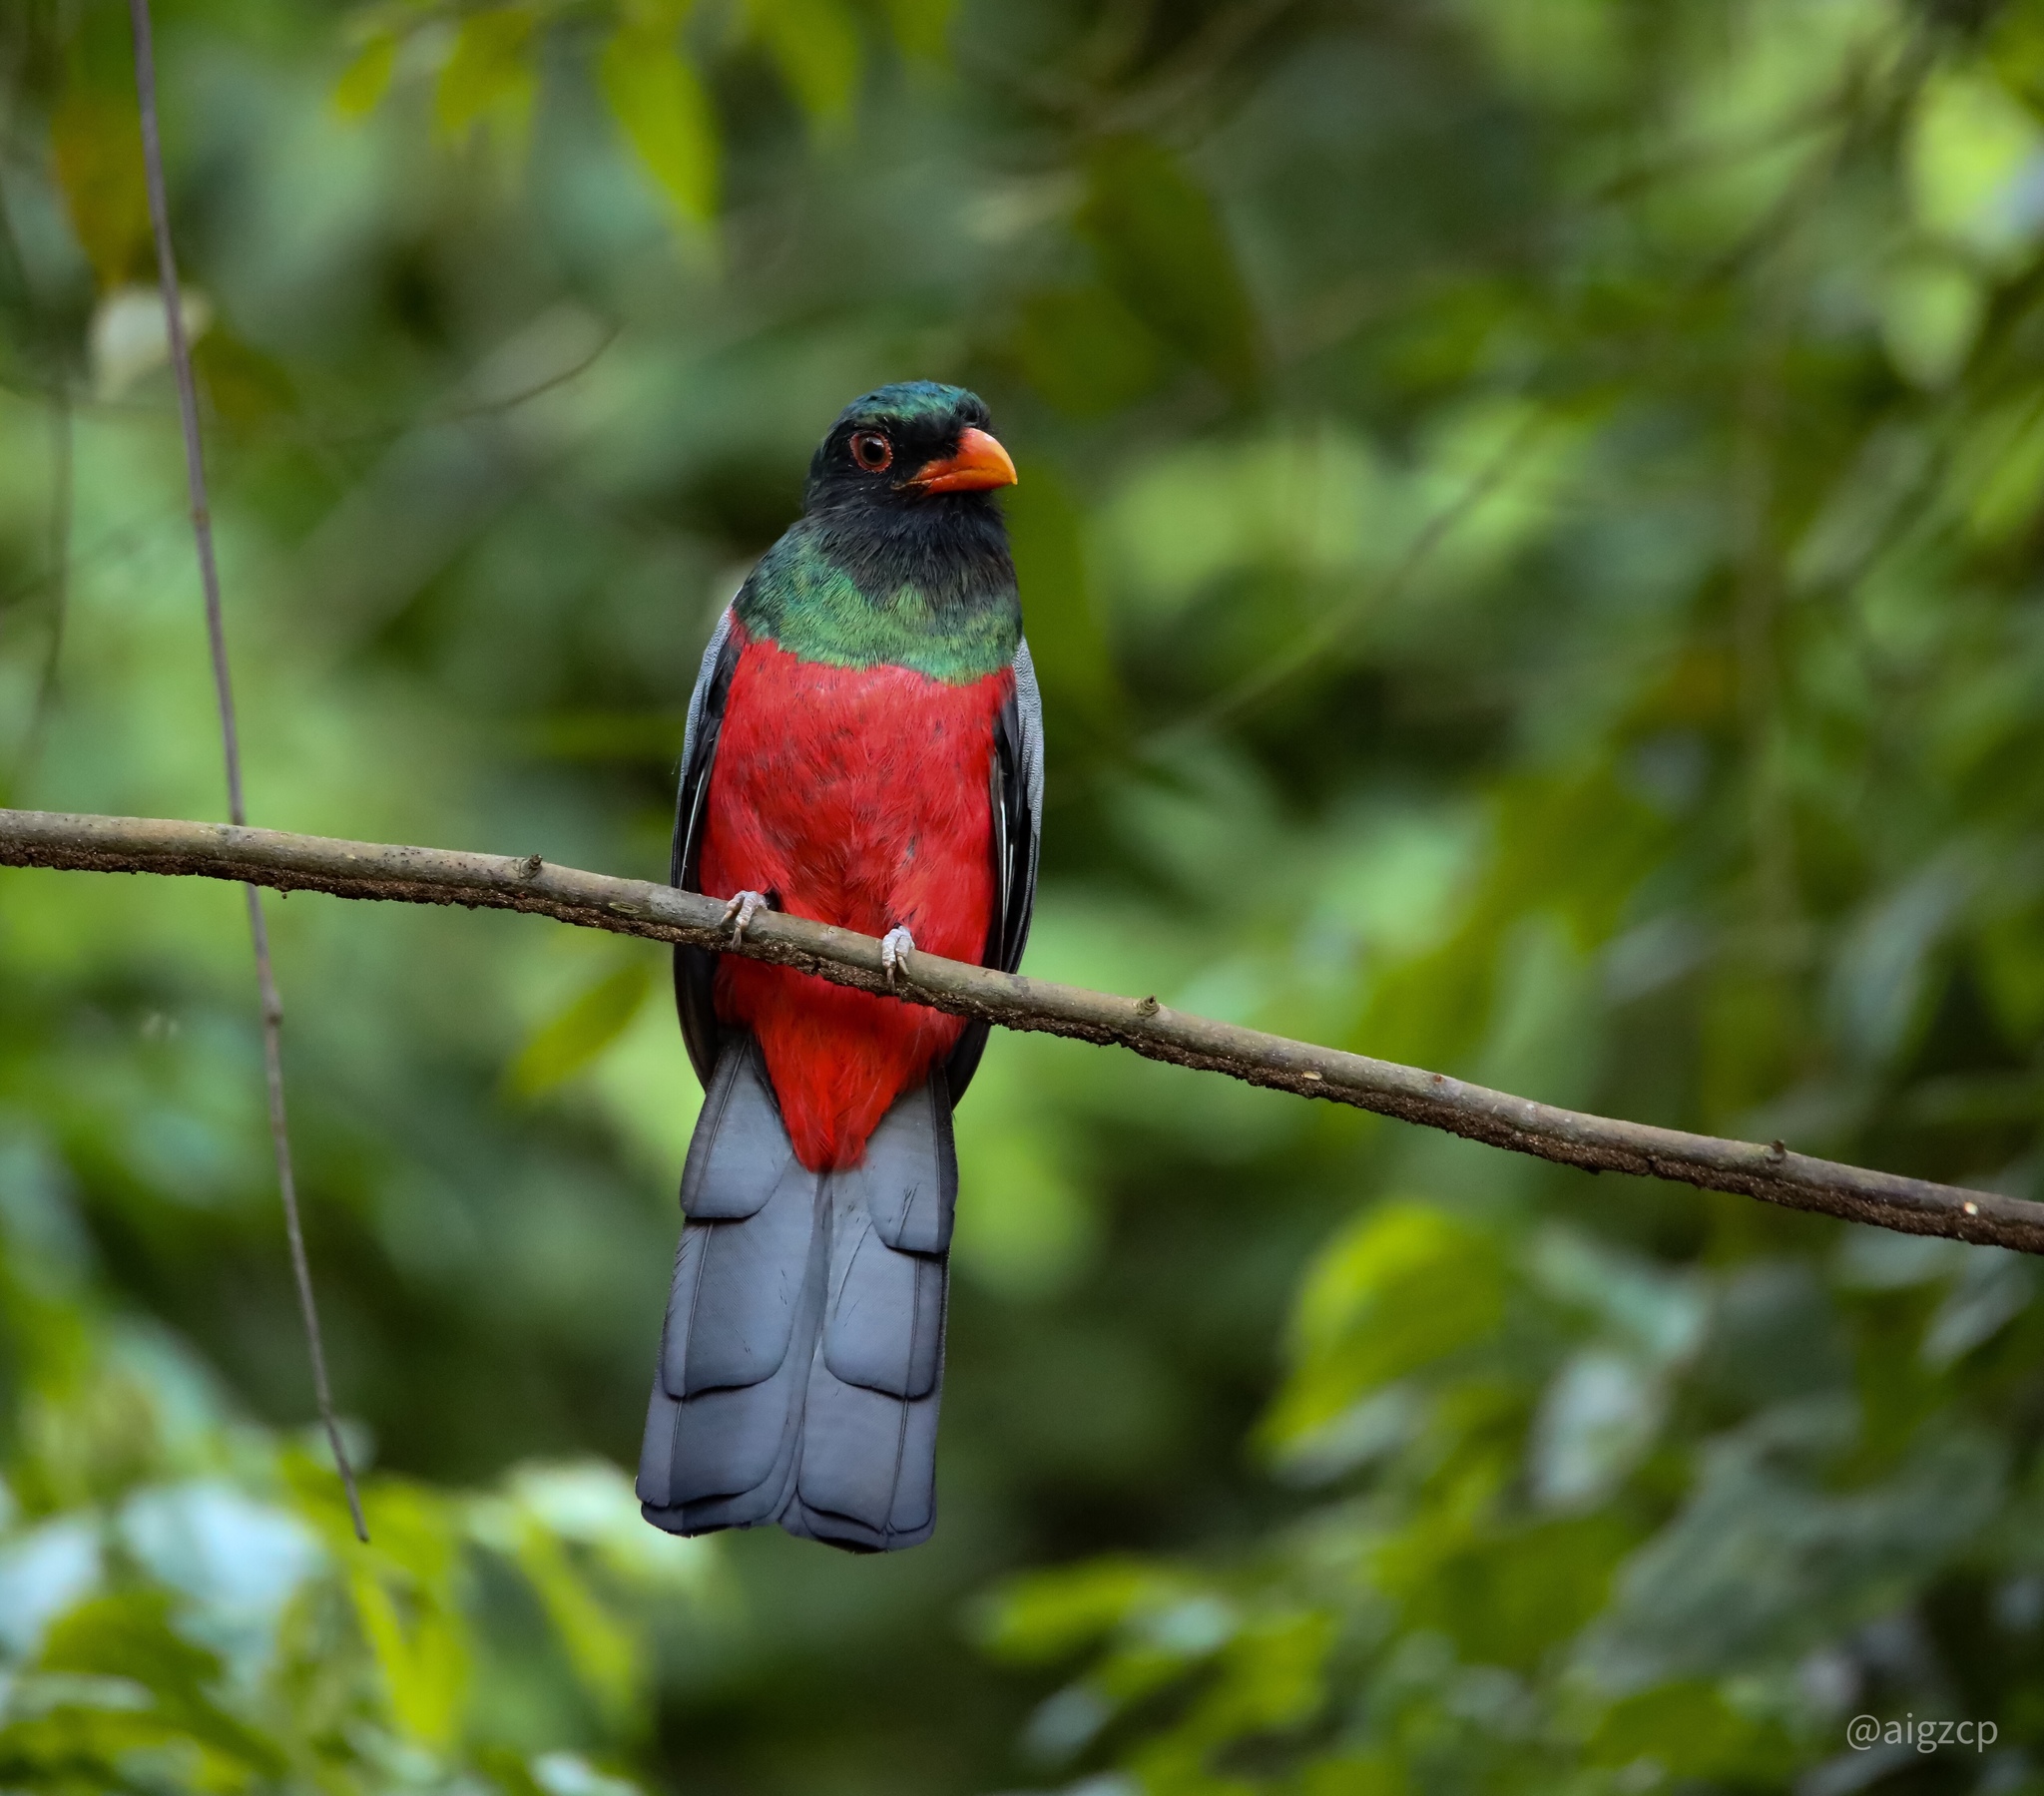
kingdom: Animalia
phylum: Chordata
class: Aves
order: Trogoniformes
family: Trogonidae
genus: Trogon
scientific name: Trogon massena
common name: Slaty-tailed trogon
